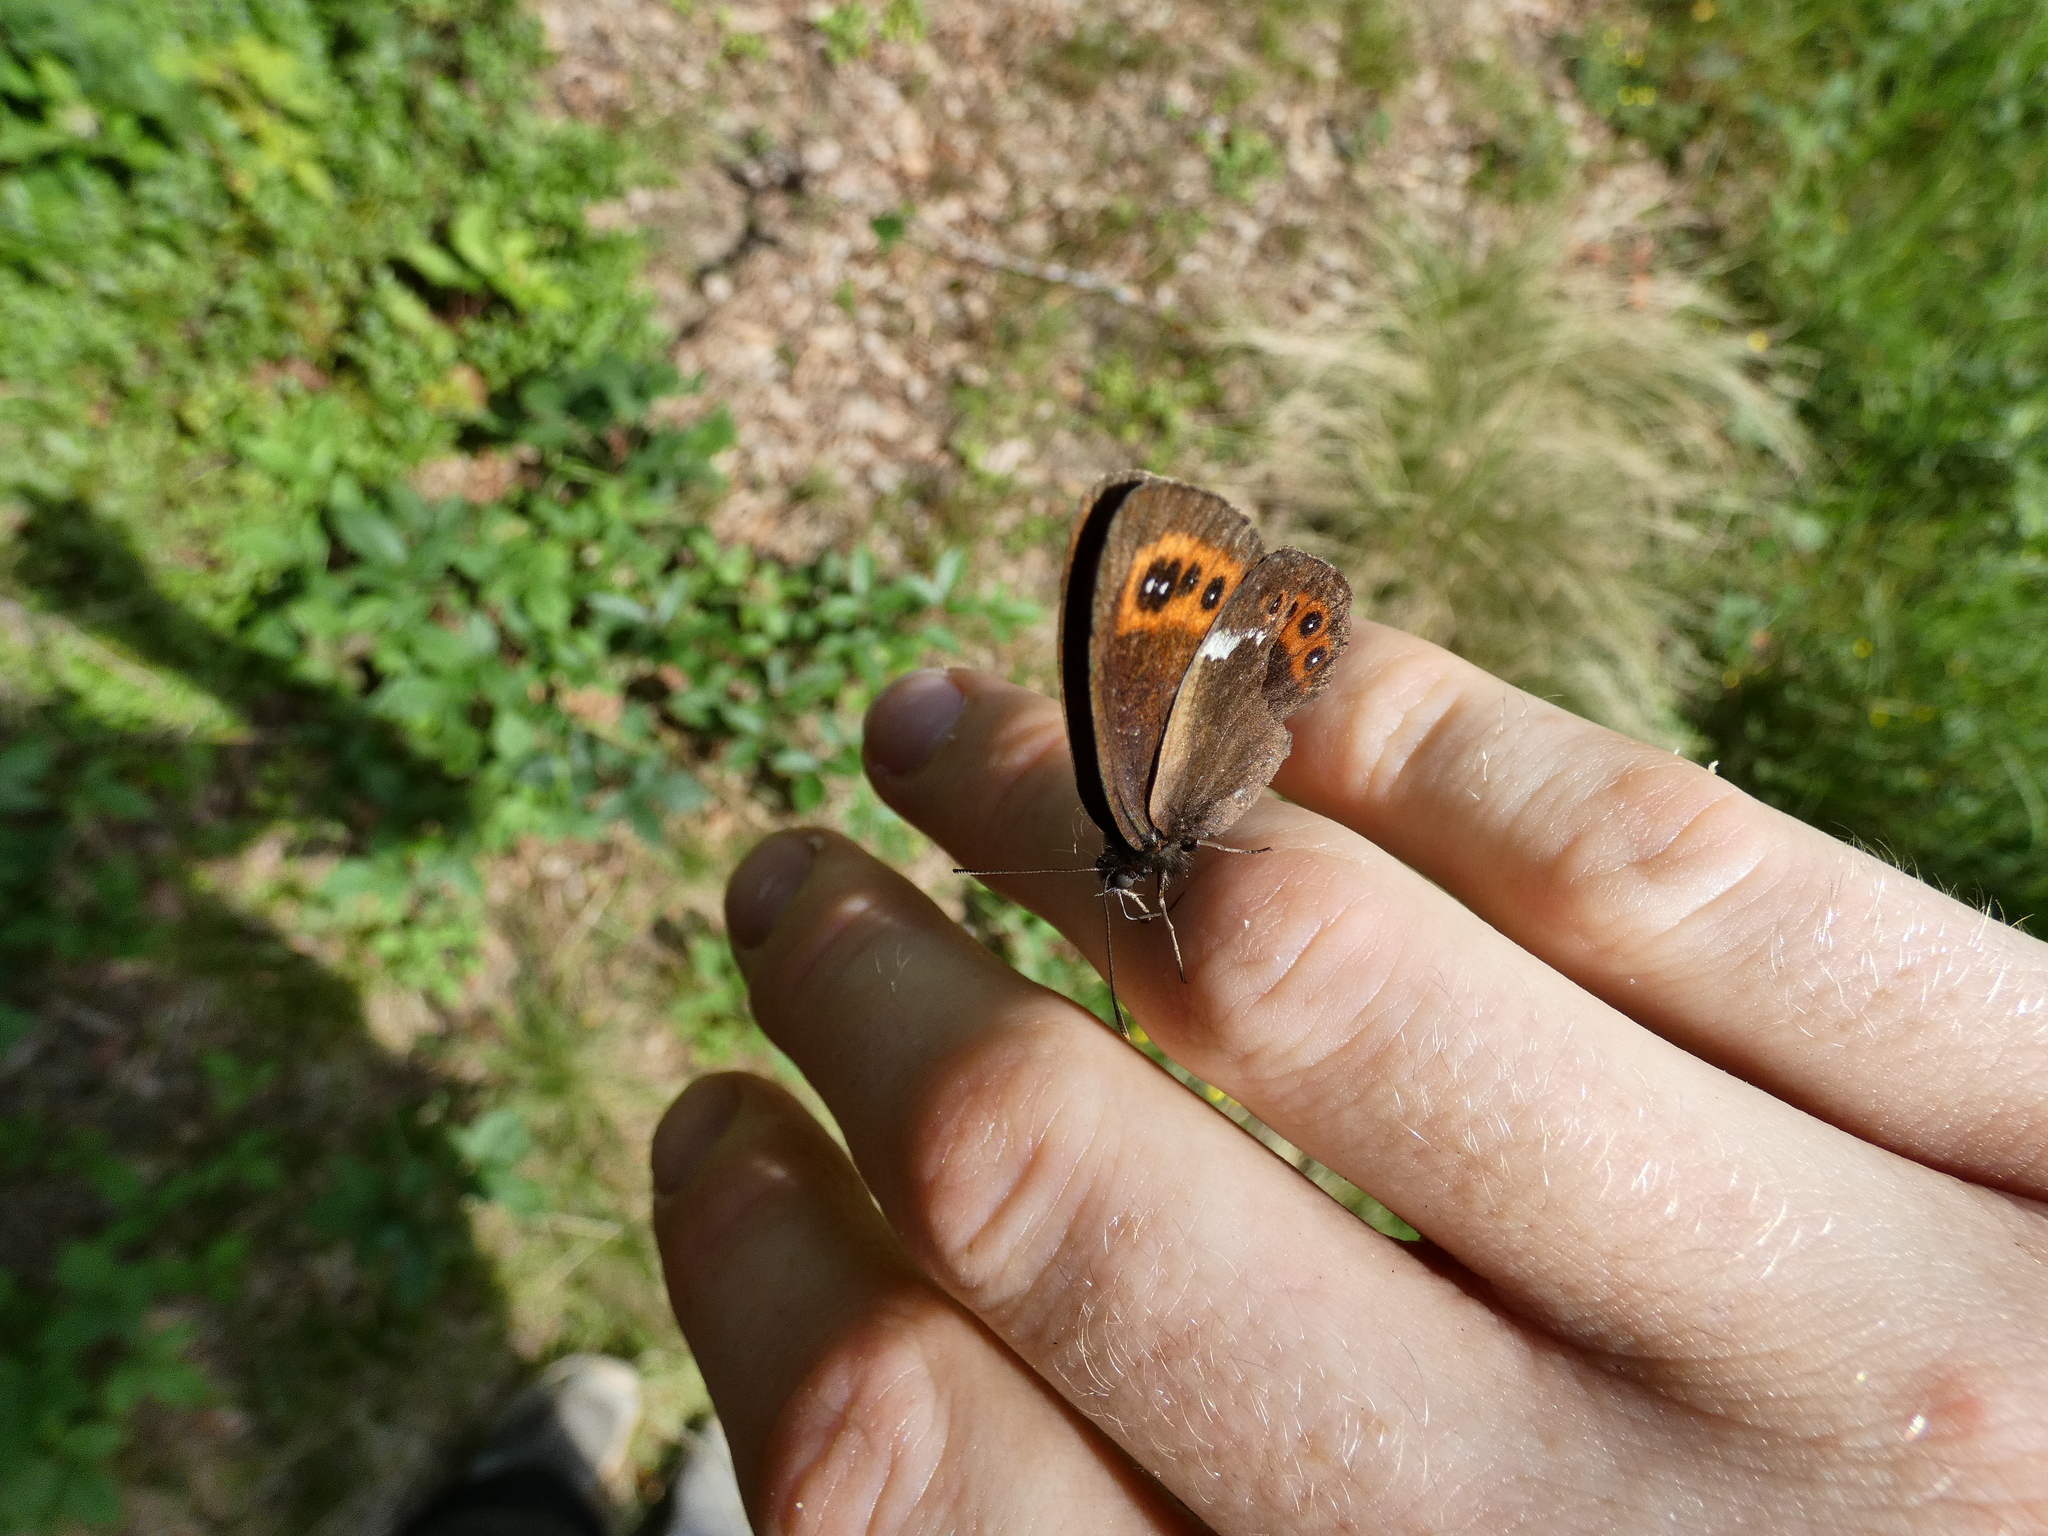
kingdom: Animalia
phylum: Arthropoda
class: Insecta
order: Lepidoptera
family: Nymphalidae
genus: Erebia
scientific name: Erebia ligea
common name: Arran brown
